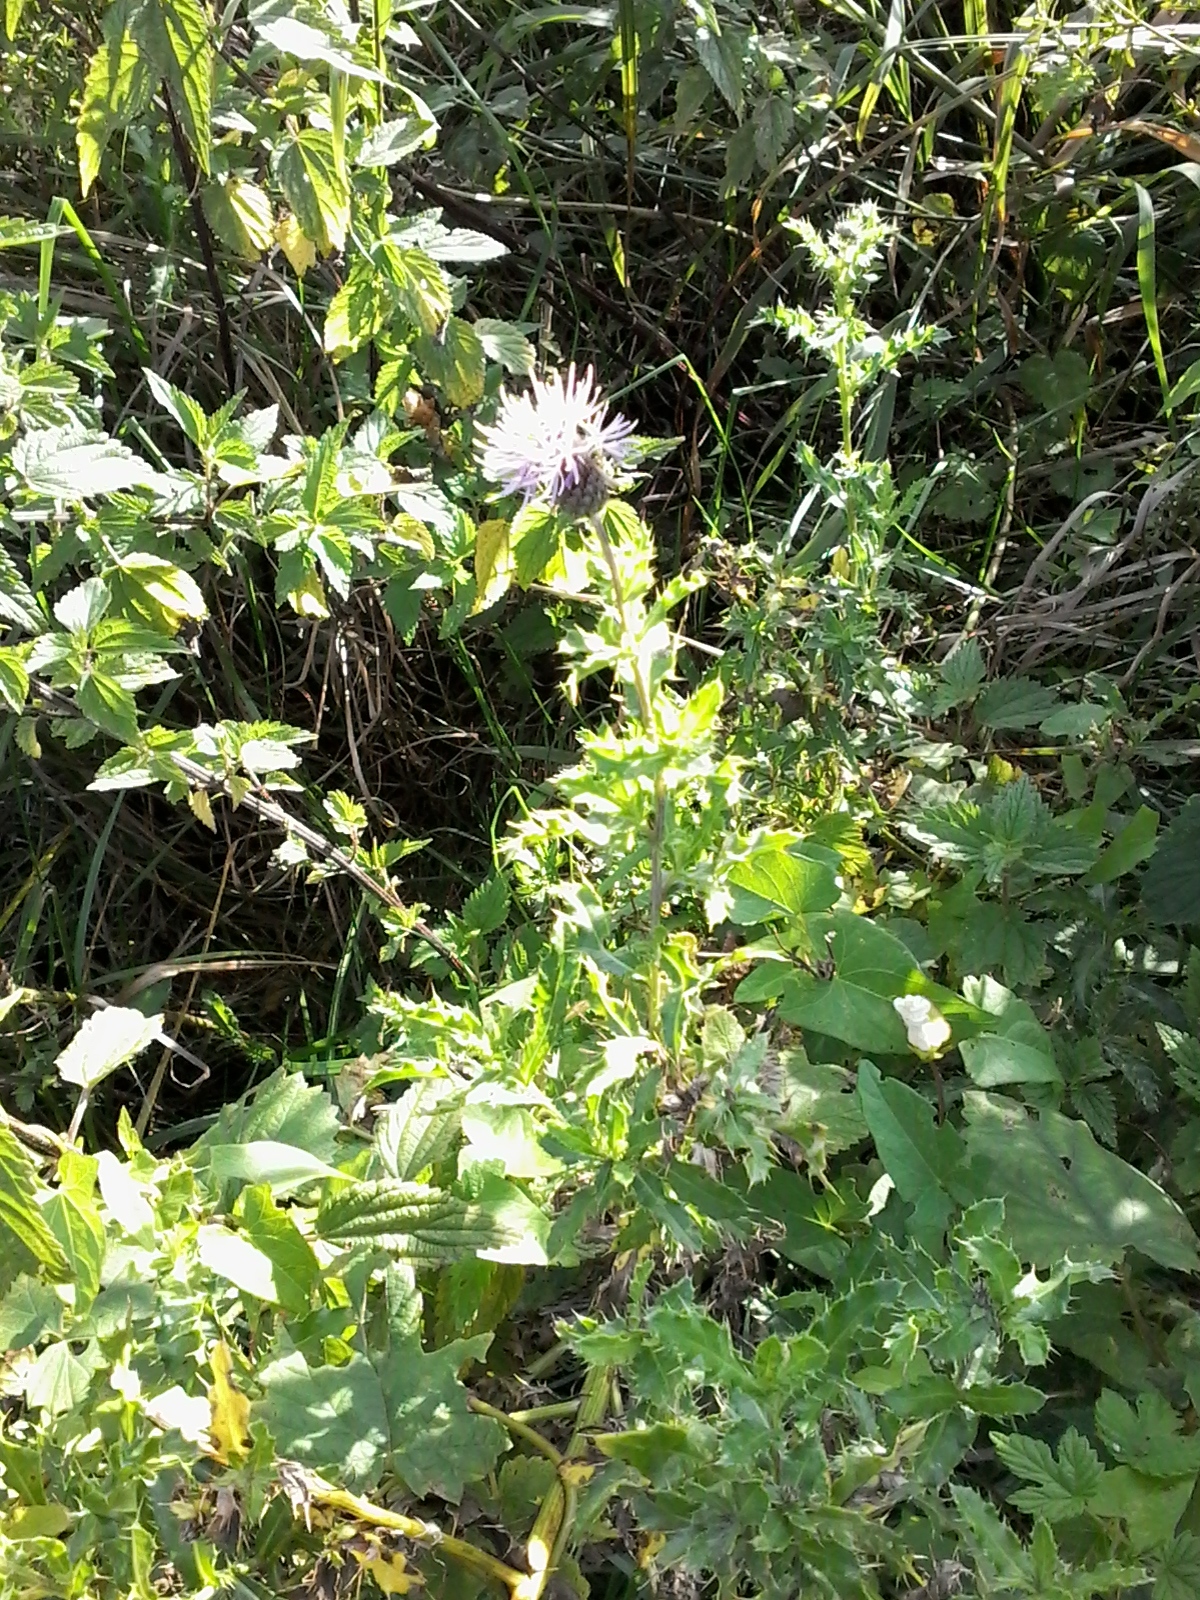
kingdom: Plantae
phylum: Tracheophyta
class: Magnoliopsida
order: Asterales
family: Asteraceae
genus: Cirsium
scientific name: Cirsium arvense
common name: Creeping thistle
